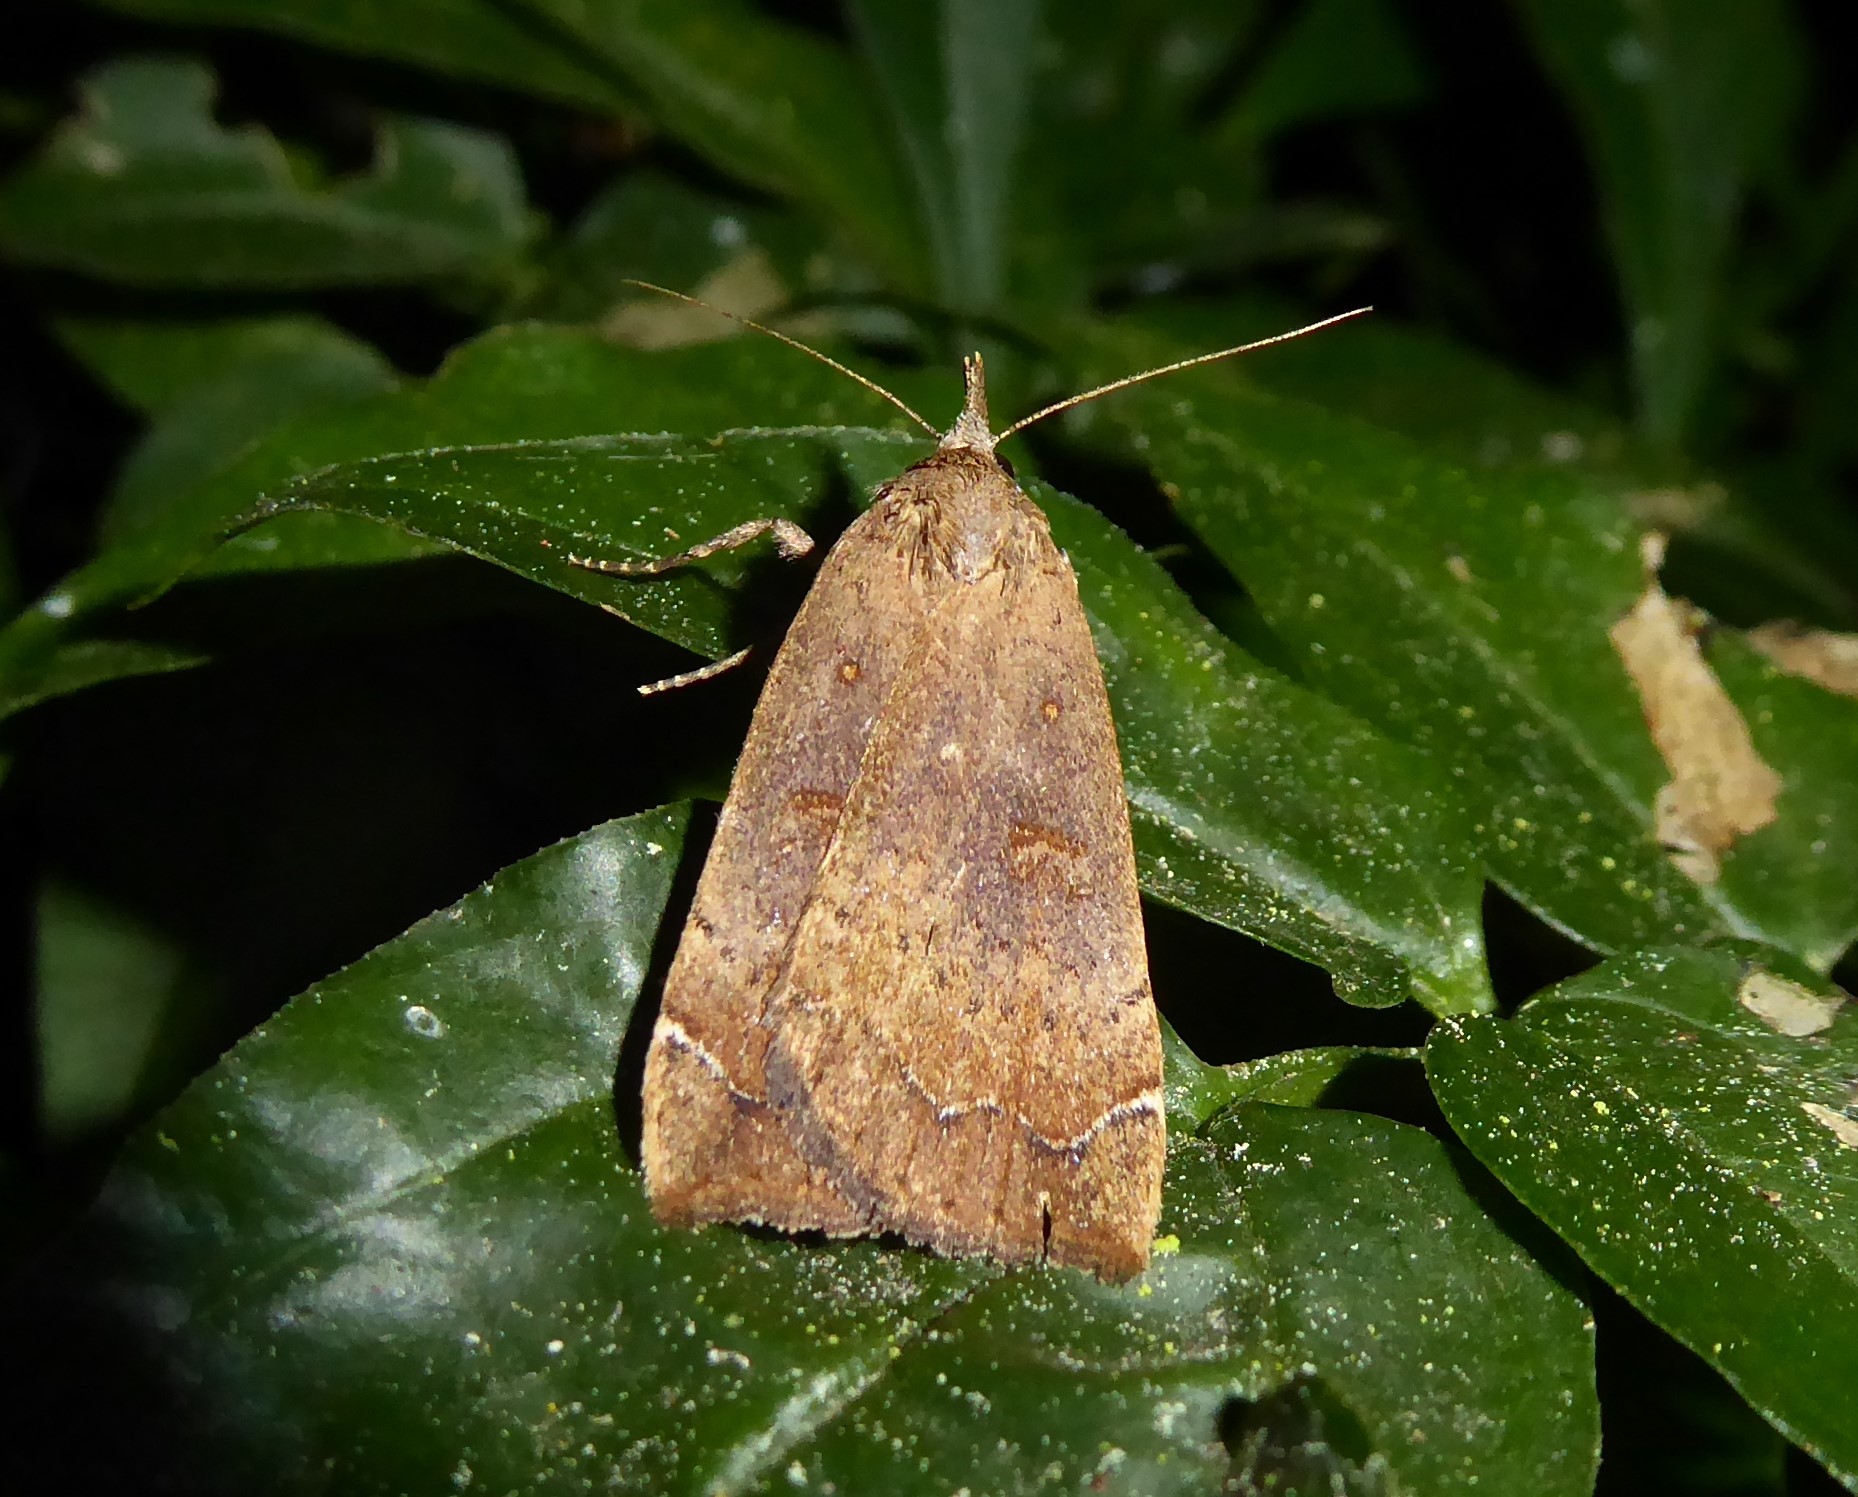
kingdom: Animalia
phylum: Arthropoda
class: Insecta
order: Lepidoptera
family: Erebidae
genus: Rhapsa
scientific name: Rhapsa scotosialis
